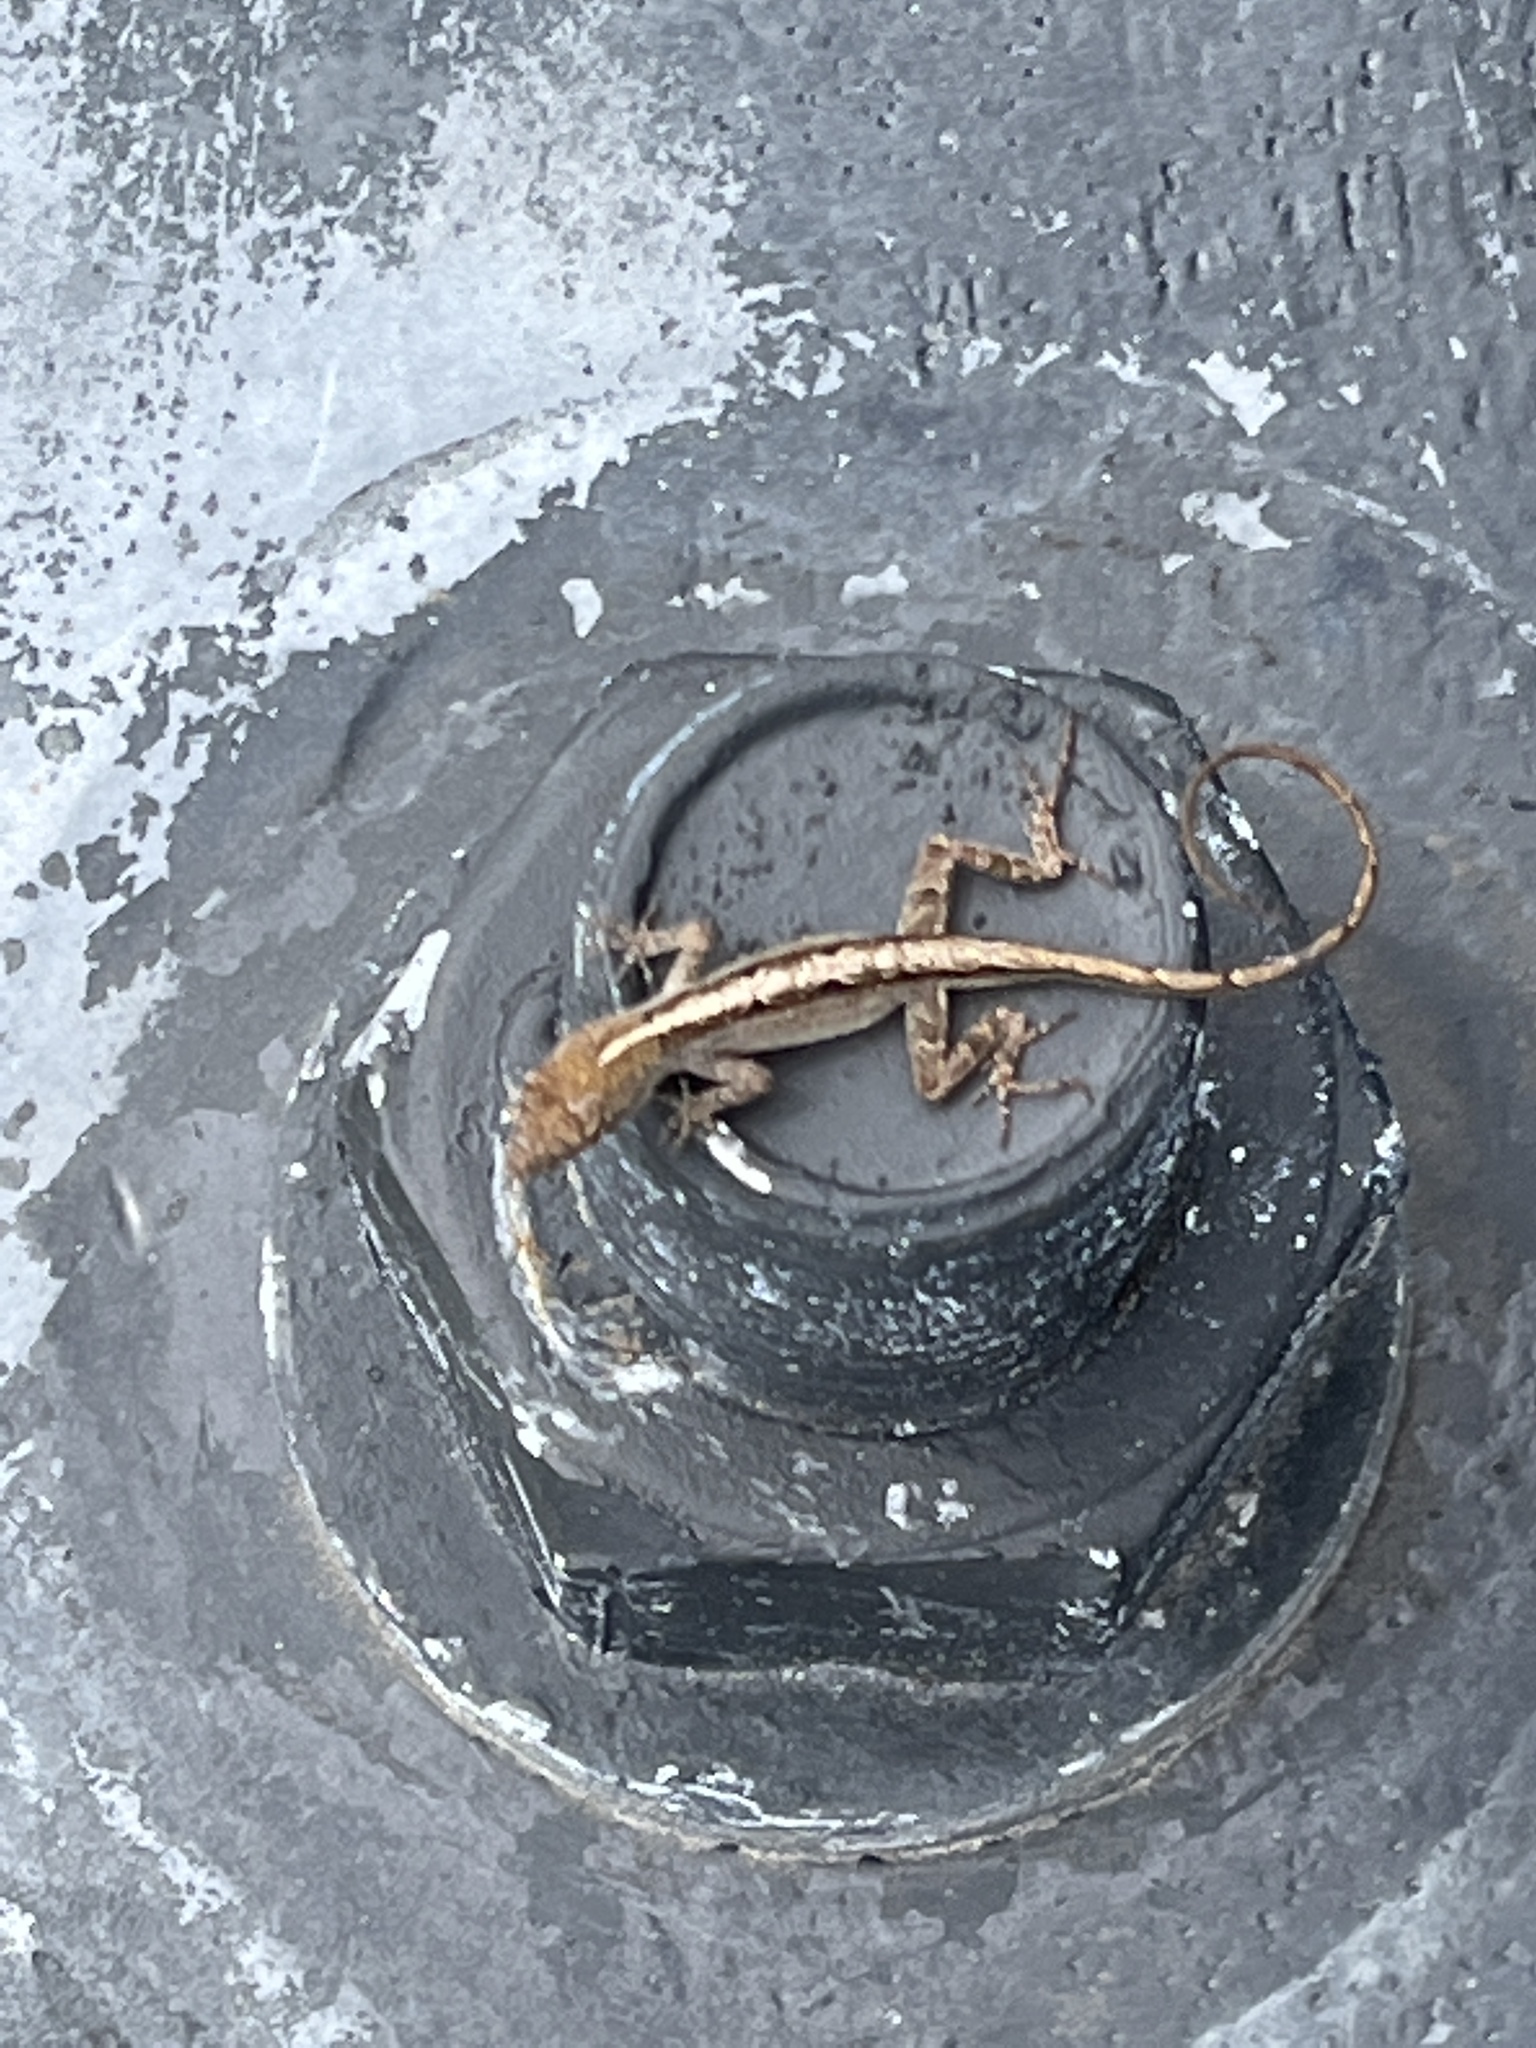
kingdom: Animalia
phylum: Chordata
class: Squamata
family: Dactyloidae
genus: Anolis
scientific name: Anolis sagrei
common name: Brown anole
